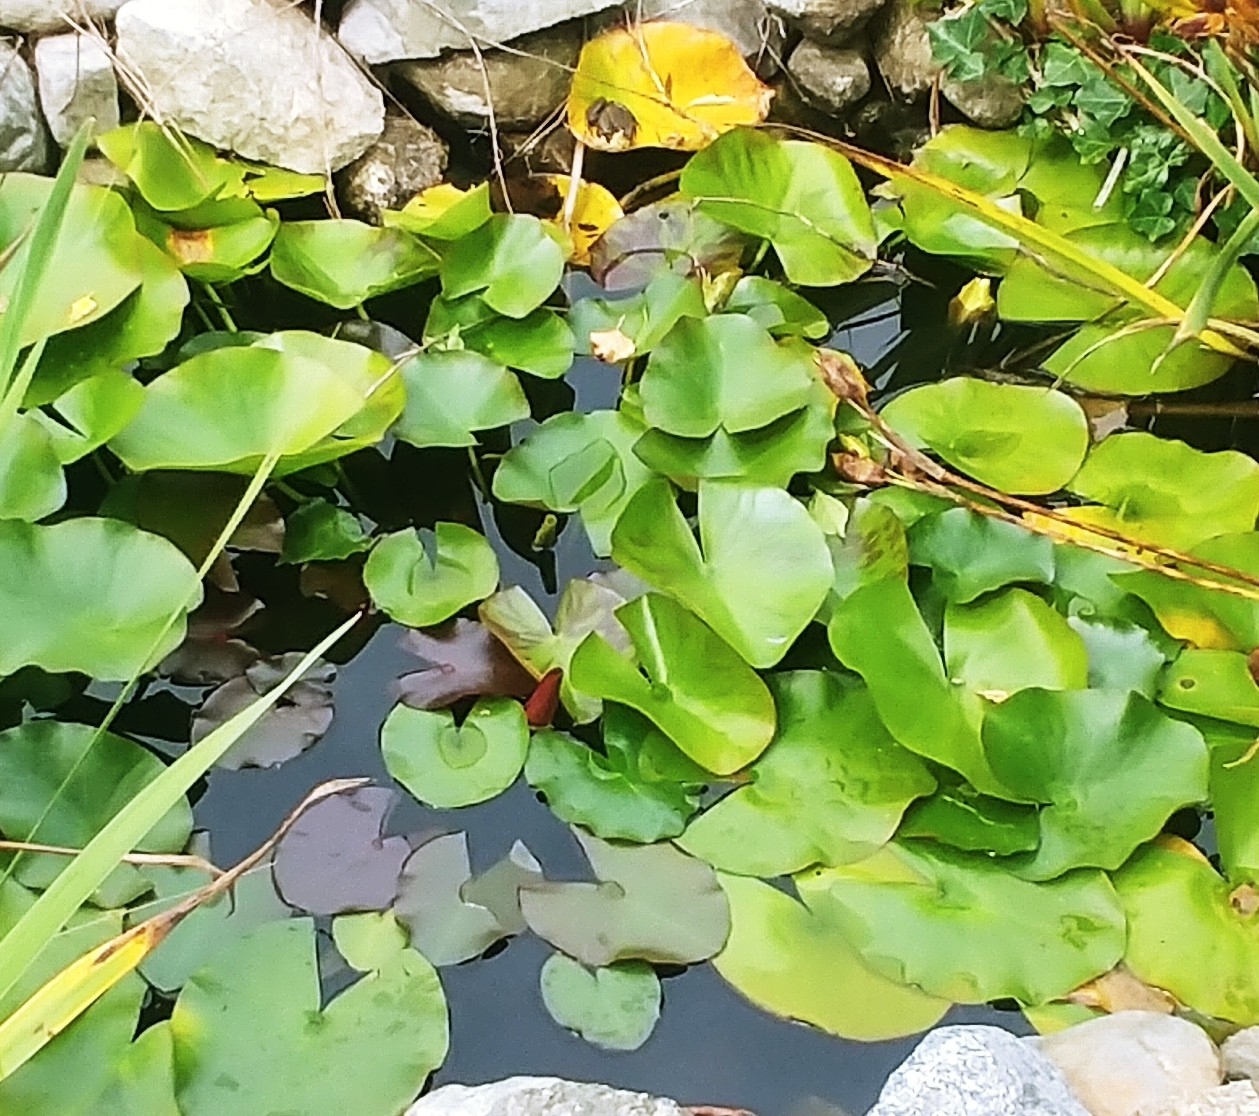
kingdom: Plantae
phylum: Tracheophyta
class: Magnoliopsida
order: Nymphaeales
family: Nymphaeaceae
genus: Nymphaea
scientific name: Nymphaea odorata
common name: Fragrant water-lily
